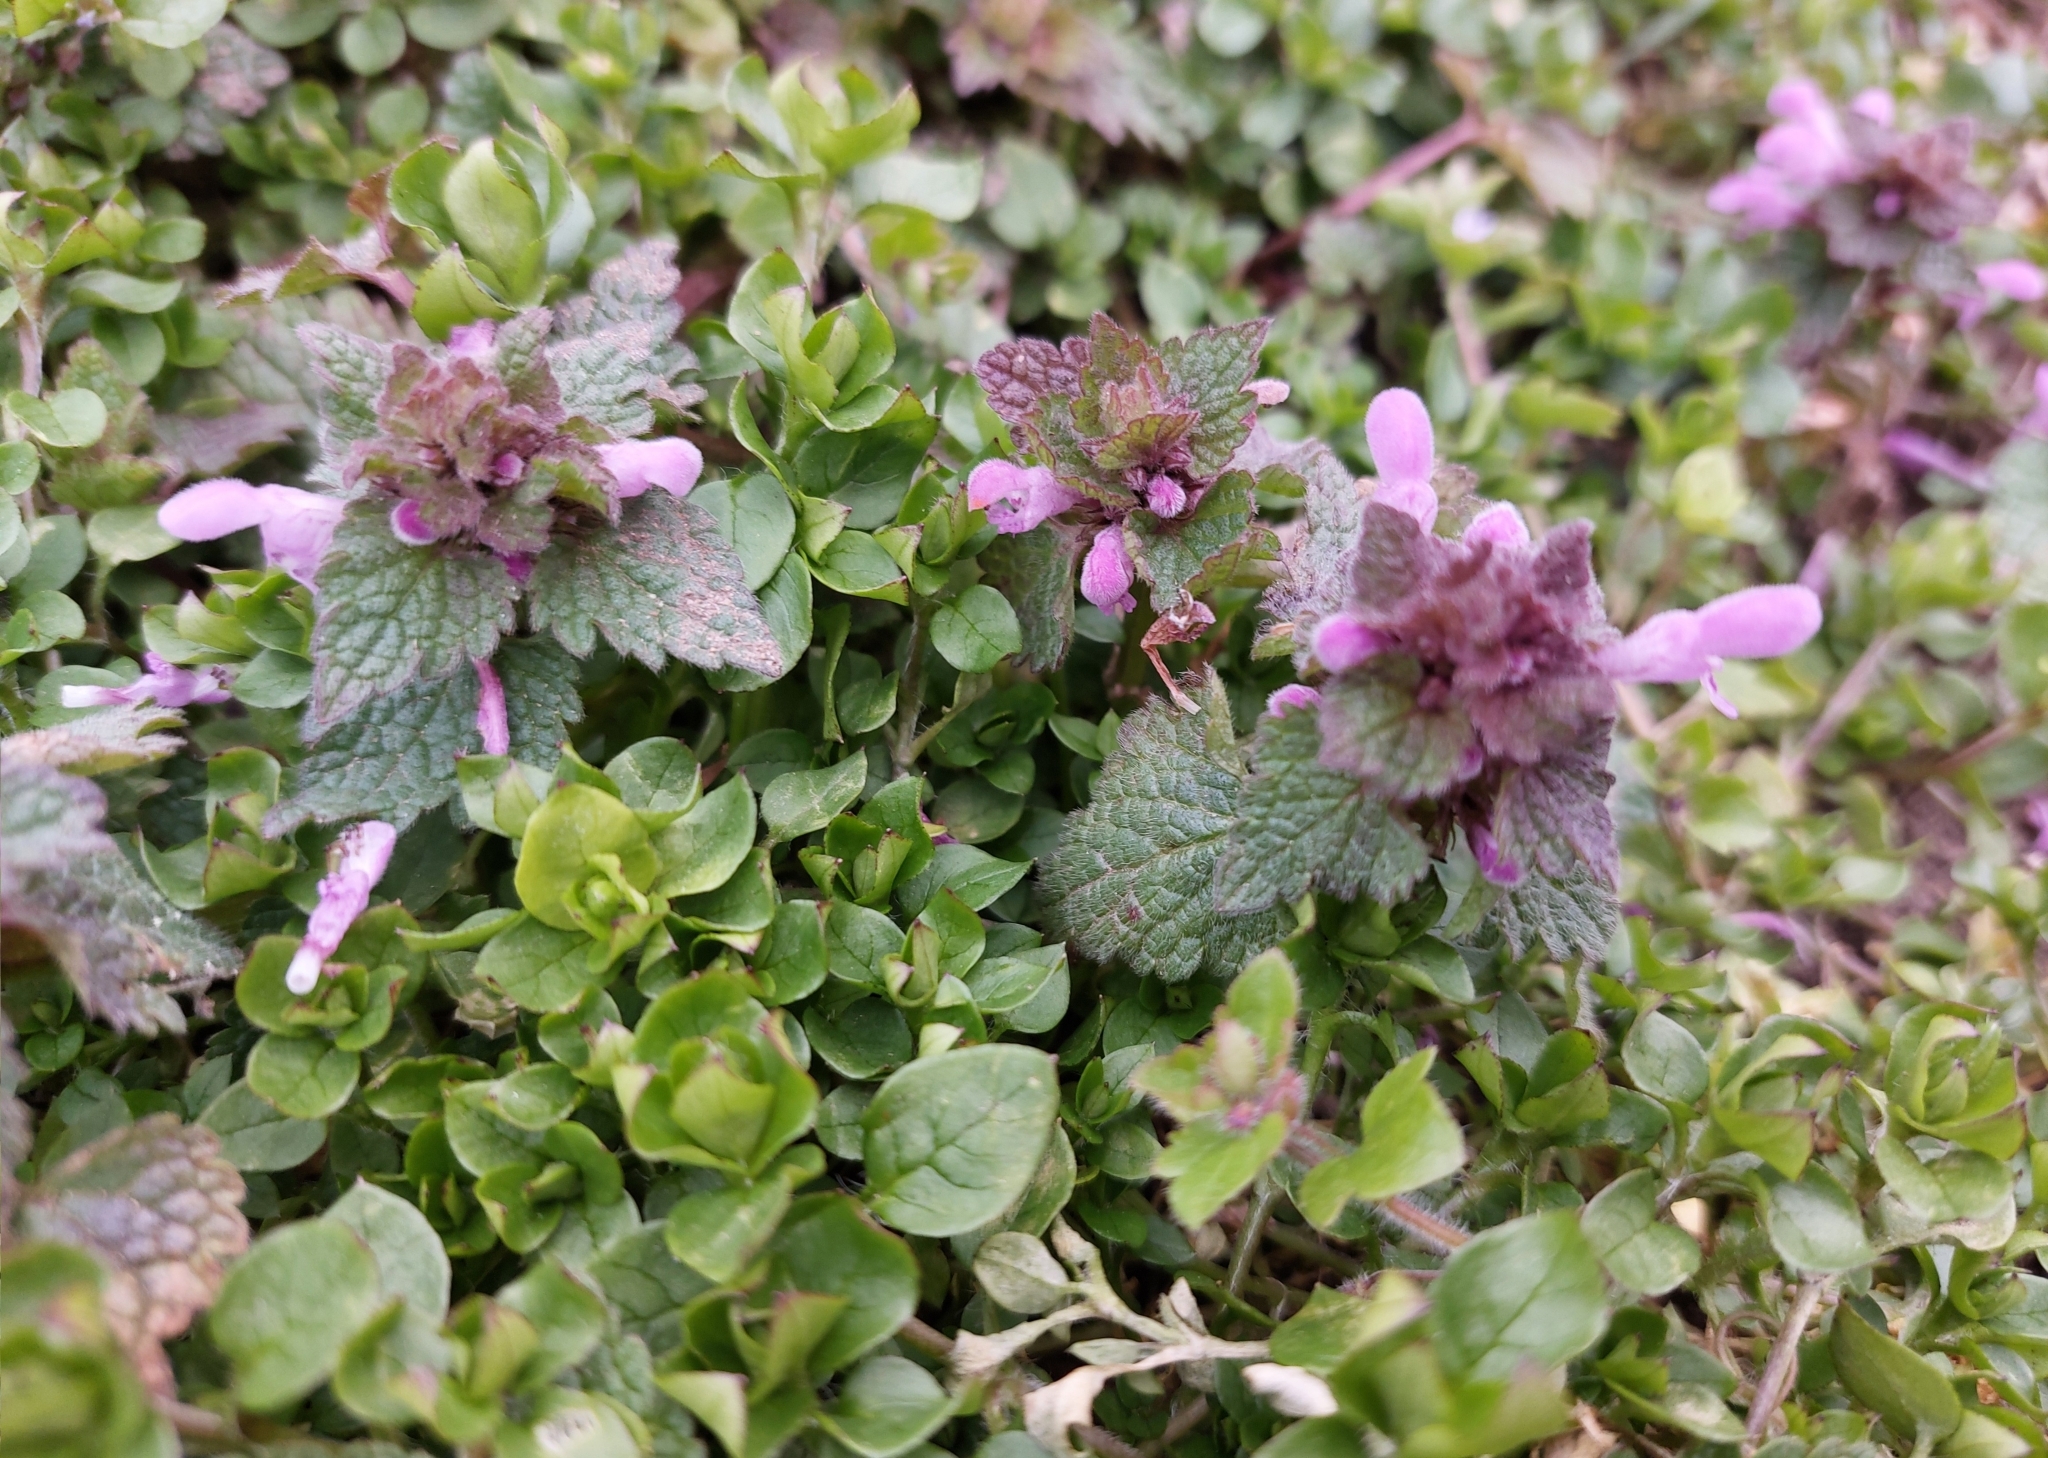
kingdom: Plantae
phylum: Tracheophyta
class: Magnoliopsida
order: Lamiales
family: Lamiaceae
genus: Lamium
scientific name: Lamium purpureum
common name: Red dead-nettle
